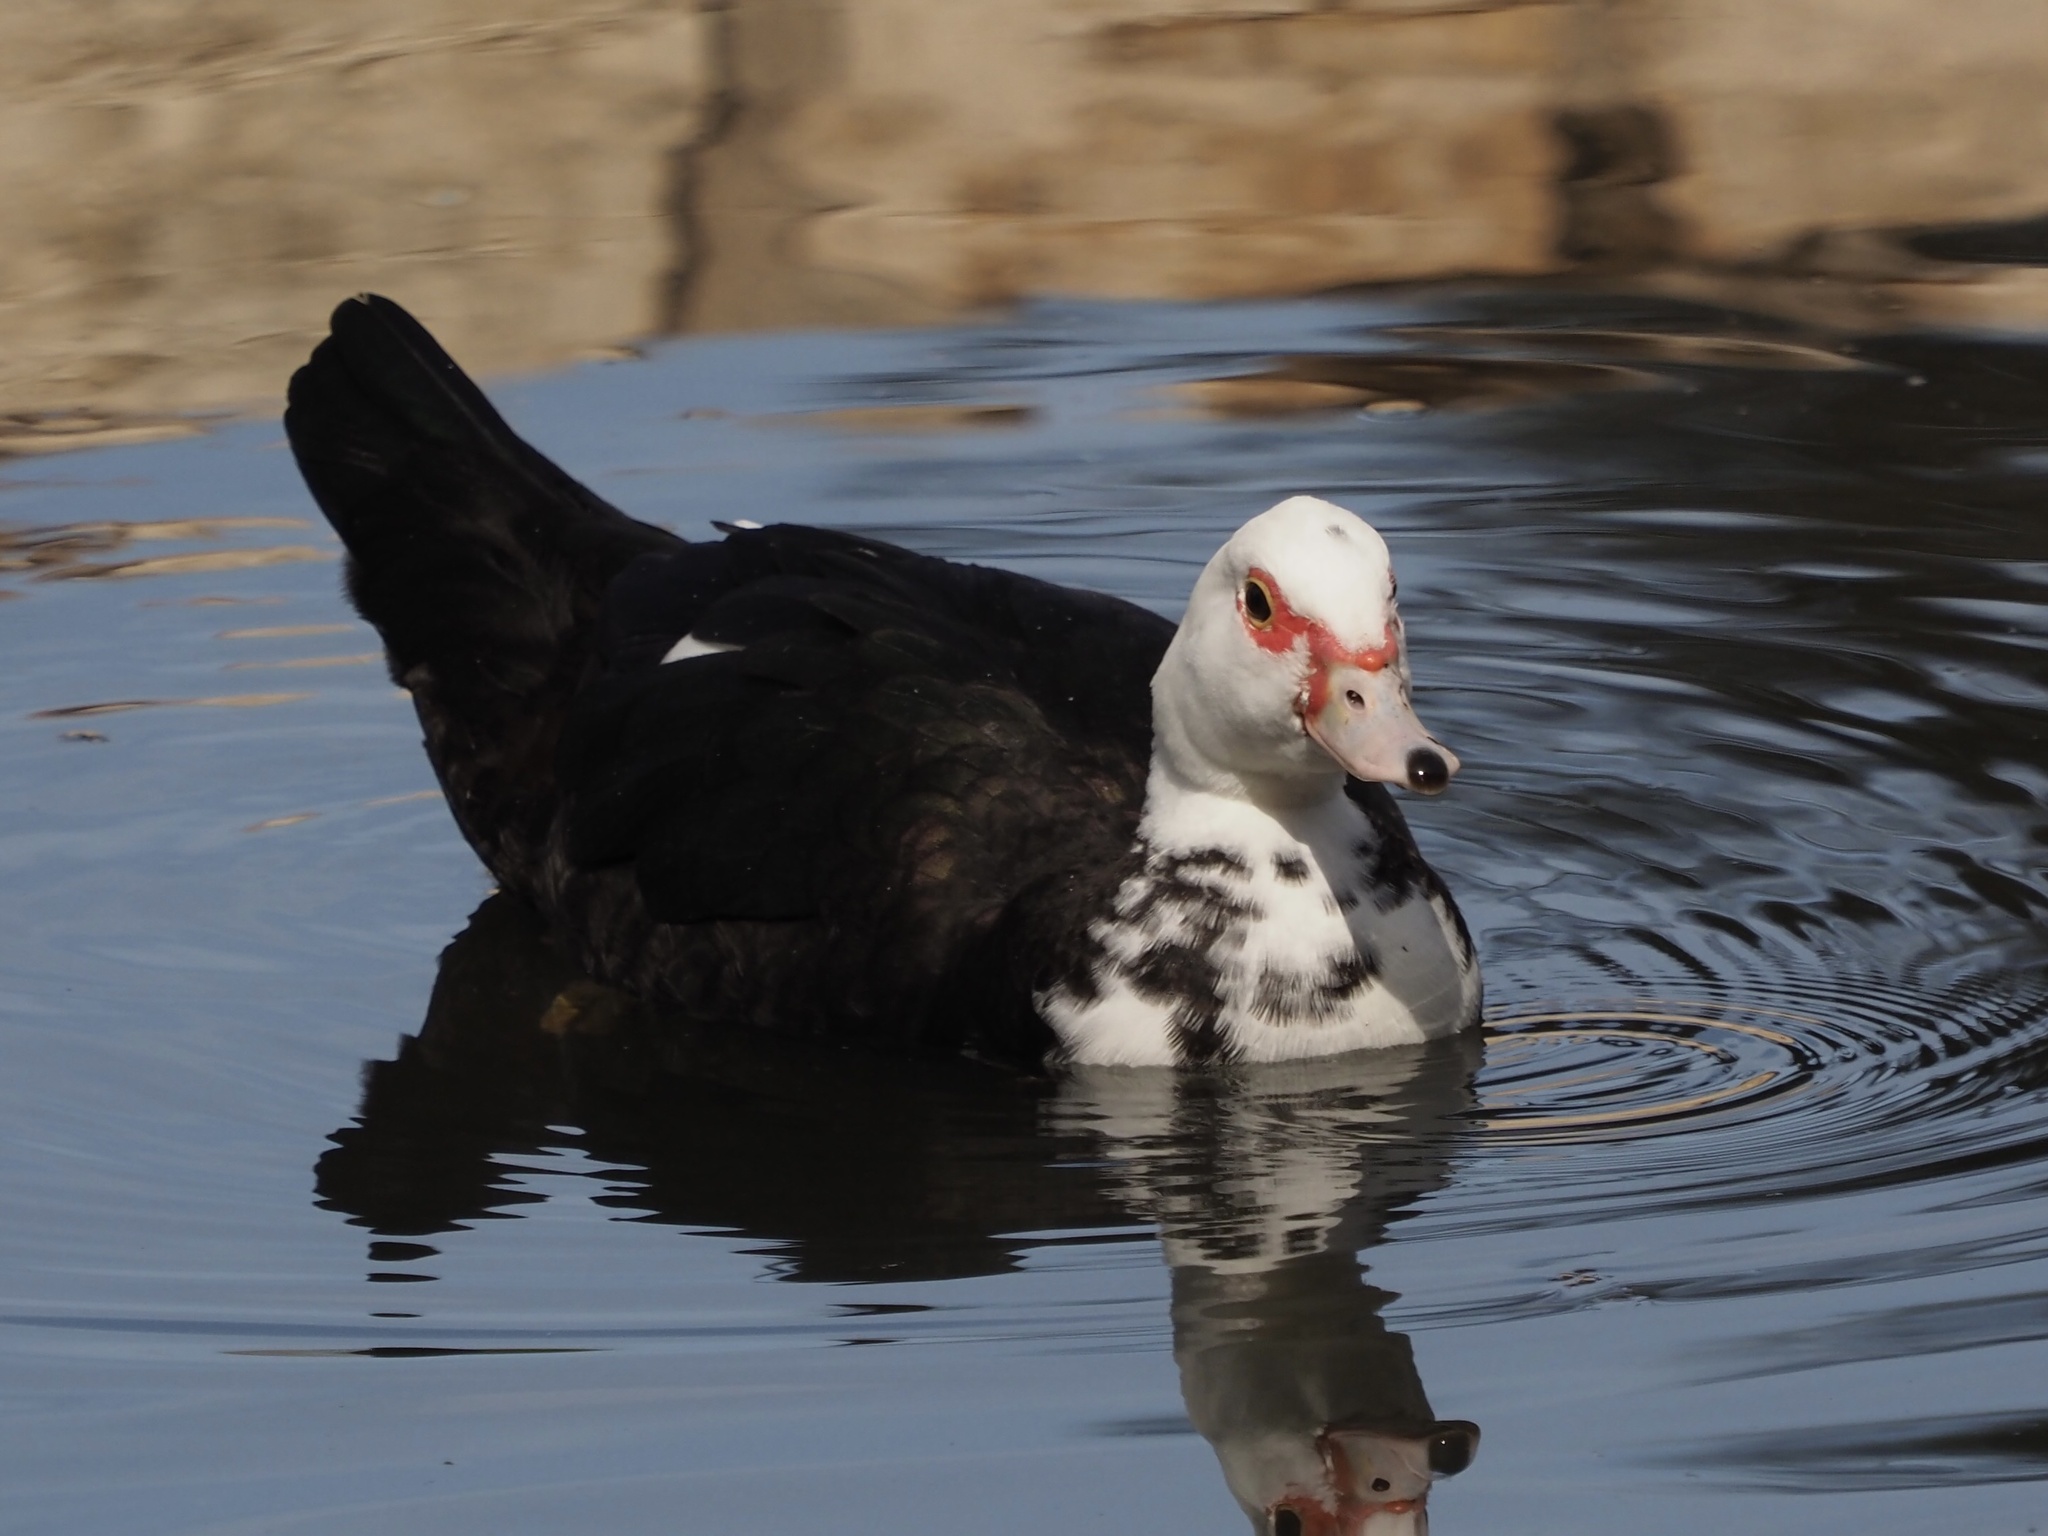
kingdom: Animalia
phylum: Chordata
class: Aves
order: Anseriformes
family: Anatidae
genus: Cairina
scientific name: Cairina moschata
